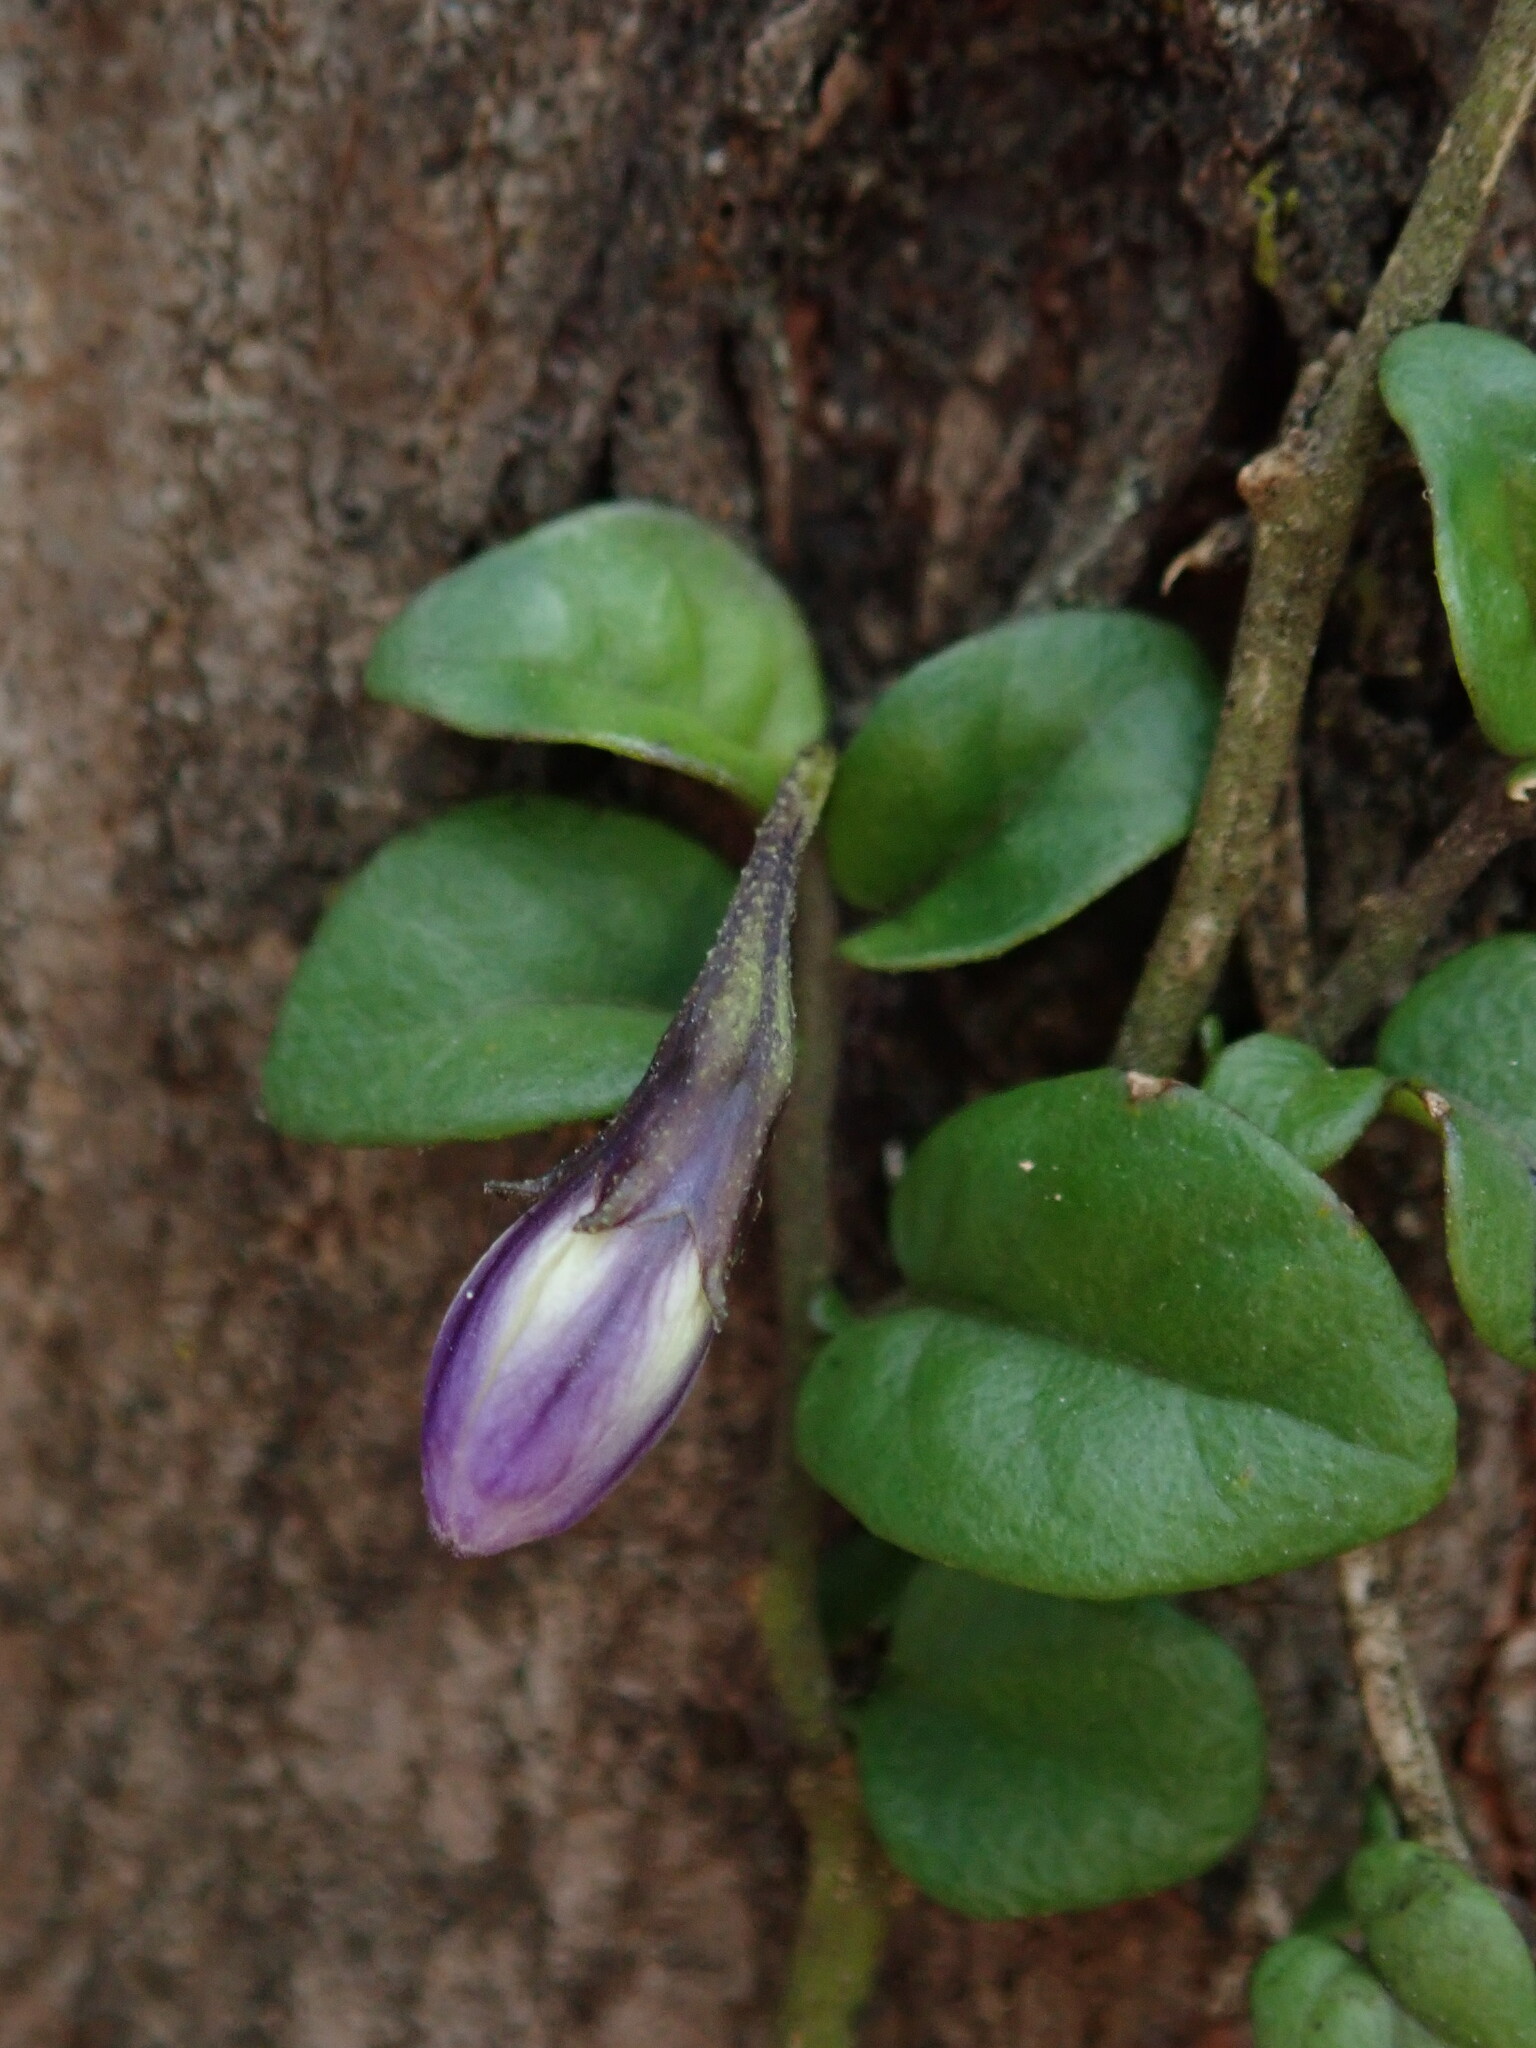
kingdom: Plantae
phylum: Tracheophyta
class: Magnoliopsida
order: Solanales
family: Solanaceae
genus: Solanum
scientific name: Solanum brevifolium
